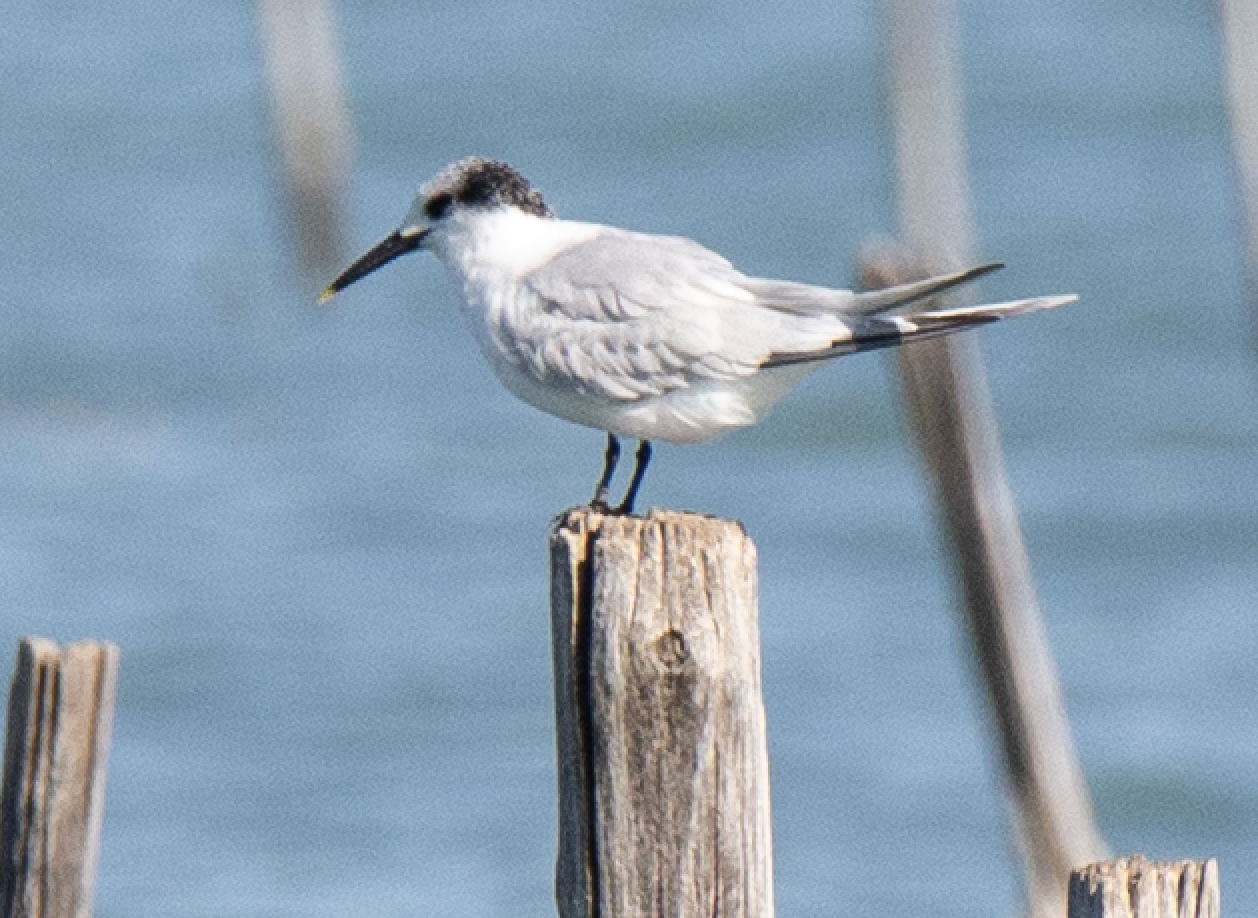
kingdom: Animalia
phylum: Chordata
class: Aves
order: Charadriiformes
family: Laridae
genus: Thalasseus
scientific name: Thalasseus sandvicensis
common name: Sandwich tern
